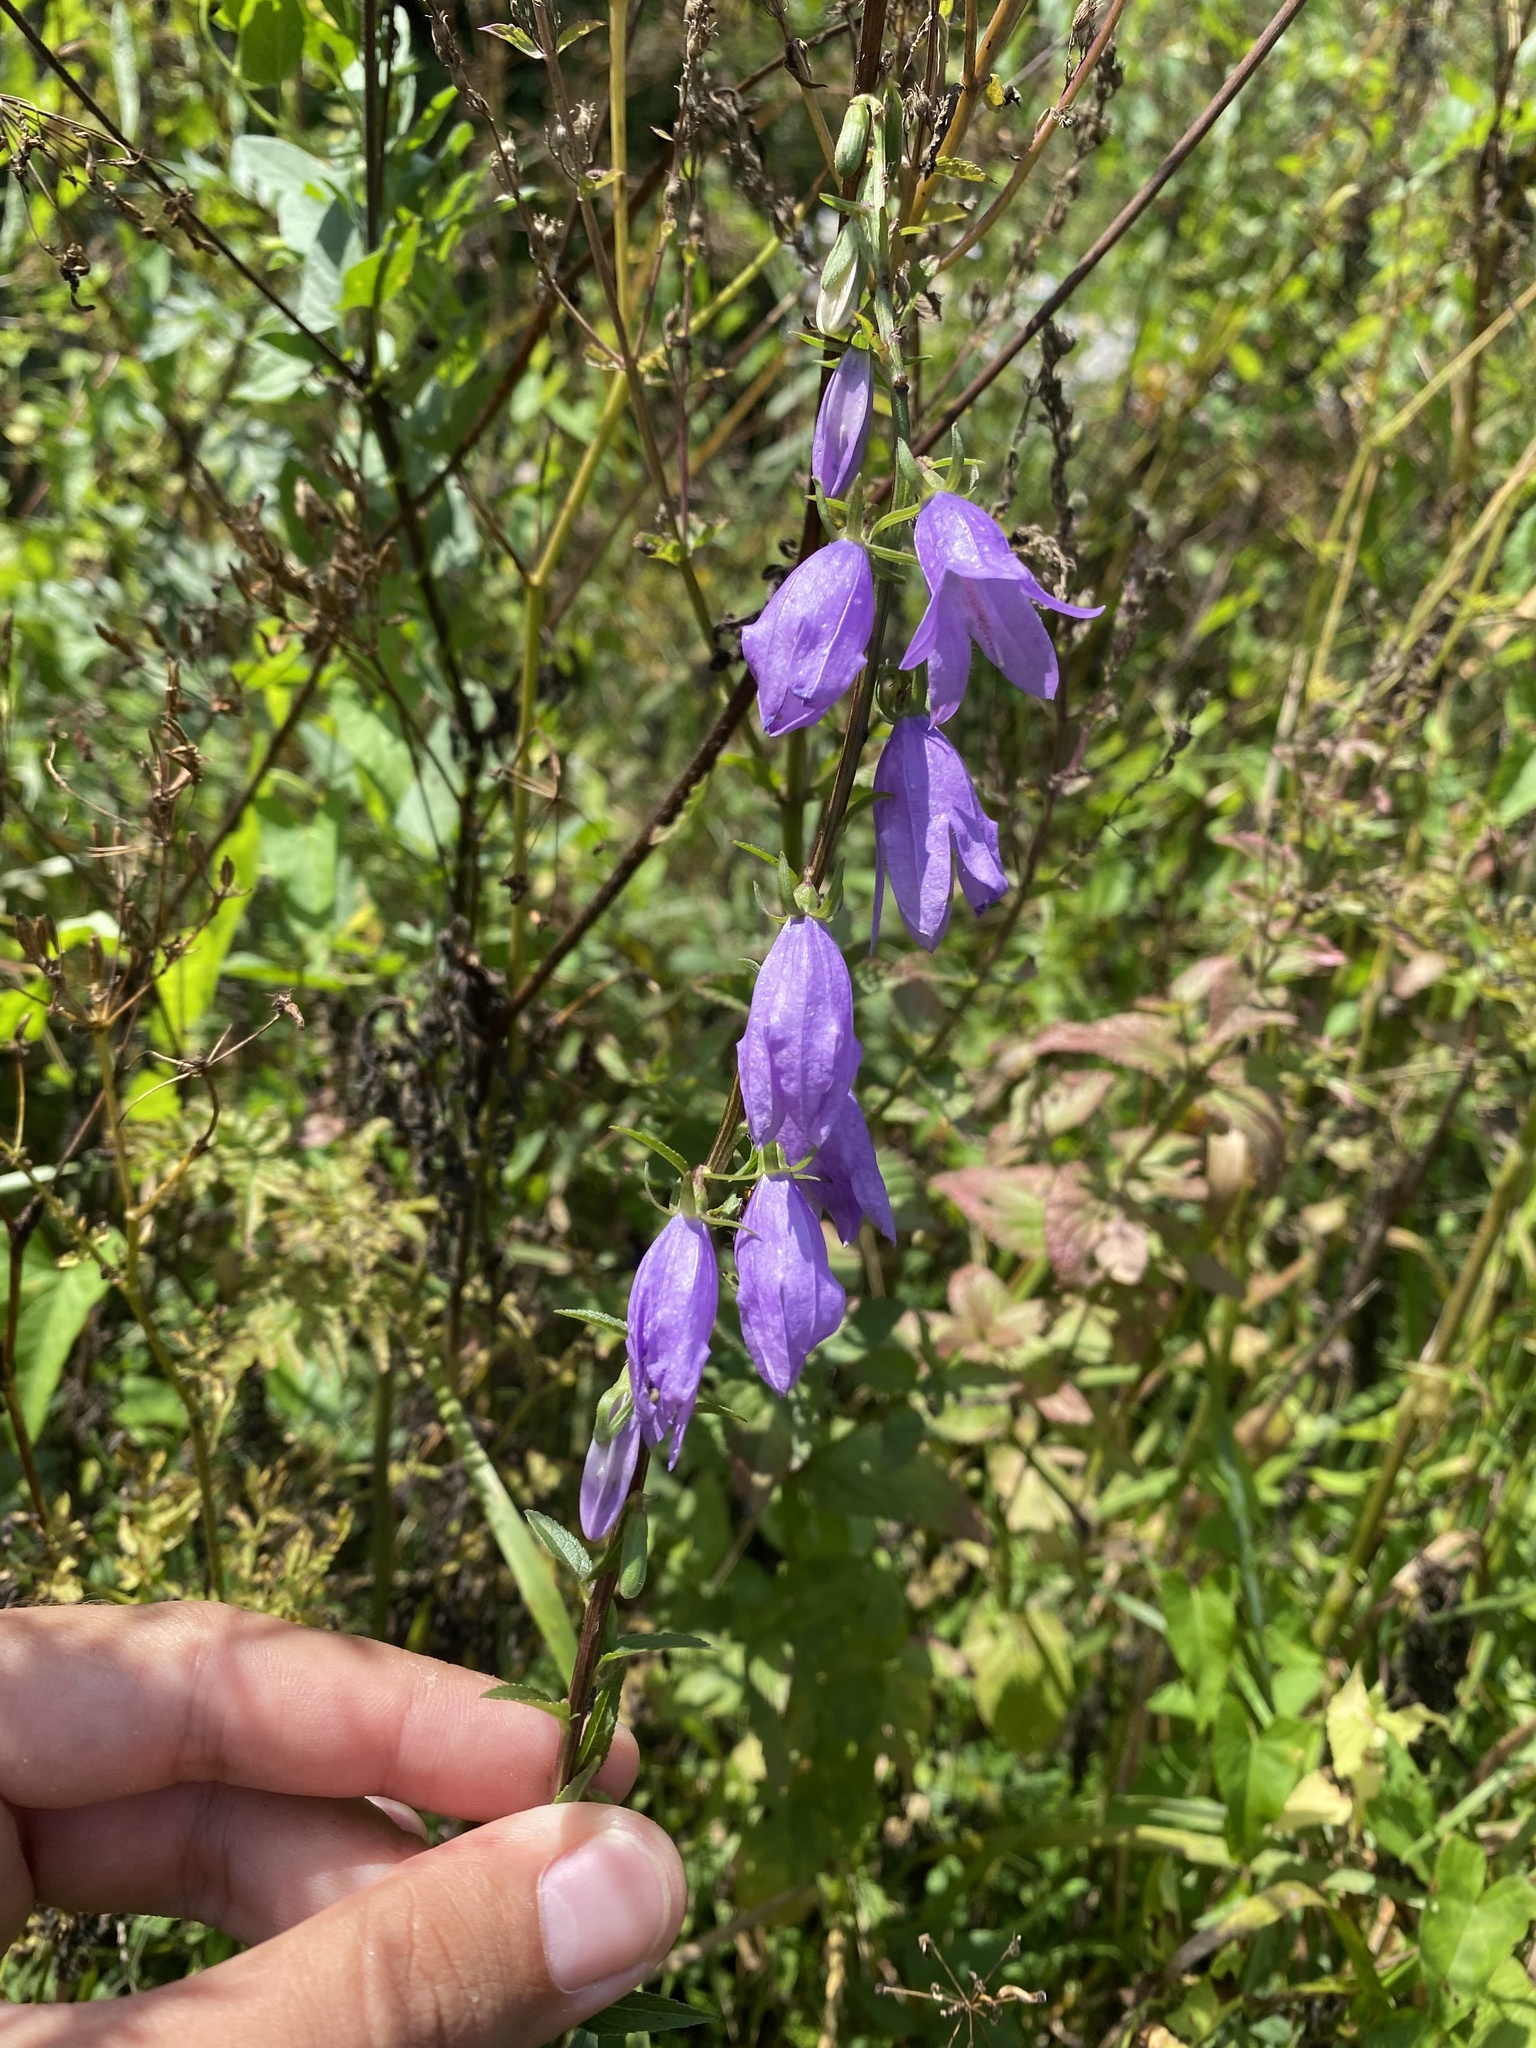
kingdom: Plantae
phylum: Tracheophyta
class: Magnoliopsida
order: Asterales
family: Campanulaceae
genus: Campanula
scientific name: Campanula rapunculoides
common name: Creeping bellflower
